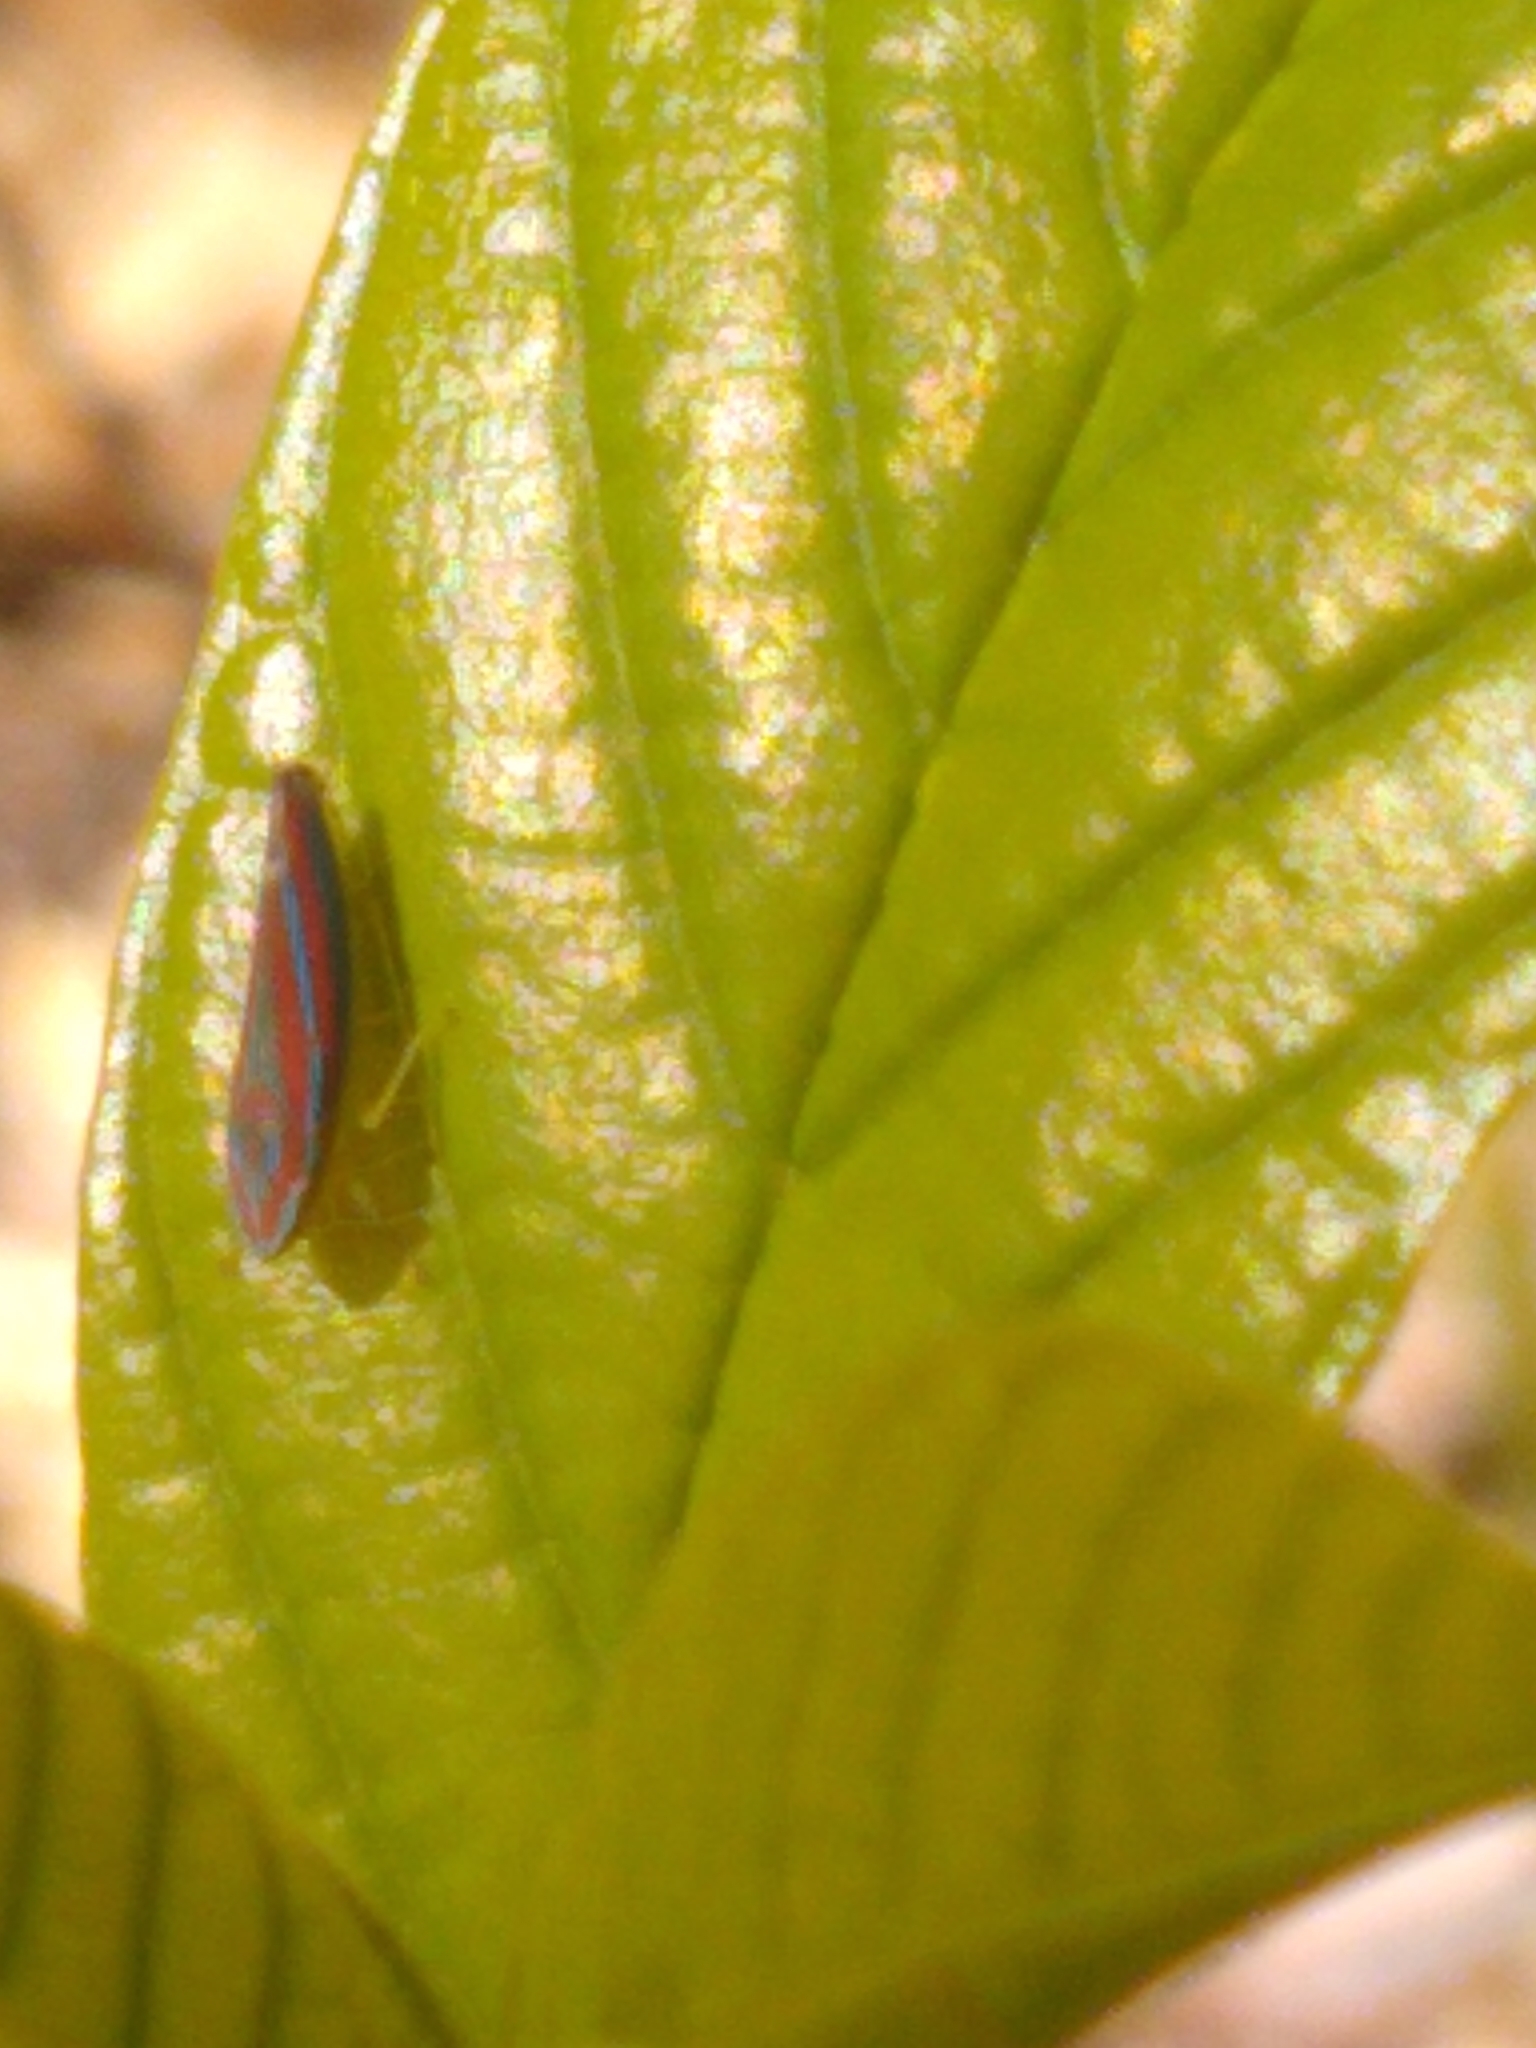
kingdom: Animalia
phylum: Arthropoda
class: Insecta
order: Hemiptera
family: Cicadellidae
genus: Graphocephala
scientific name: Graphocephala versuta
